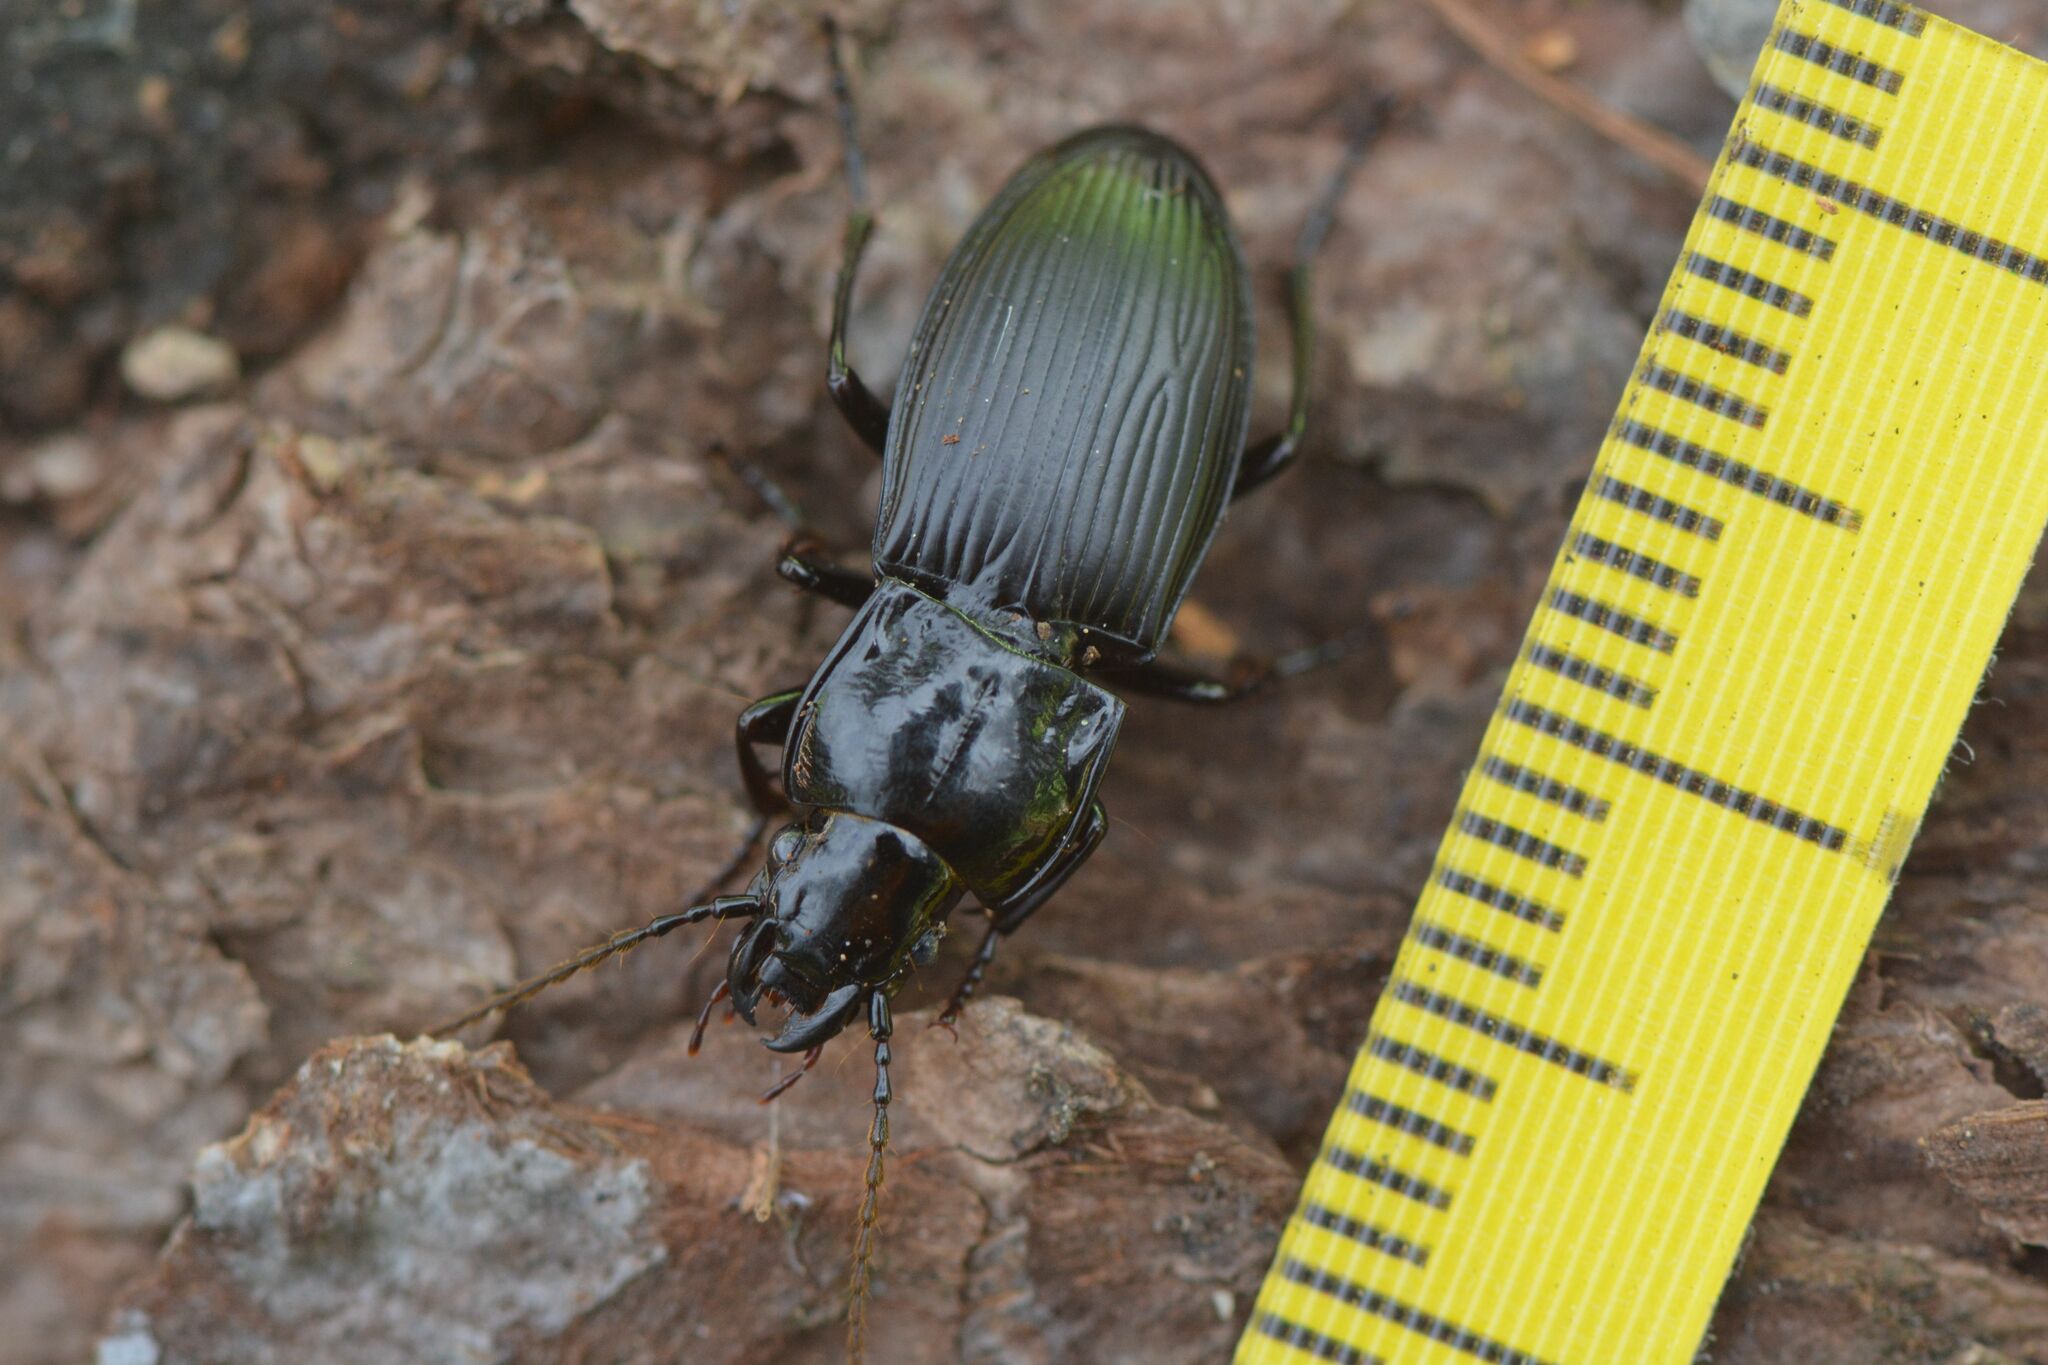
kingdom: Animalia
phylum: Arthropoda
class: Insecta
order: Coleoptera
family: Carabidae
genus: Abax
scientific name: Abax parallelus
